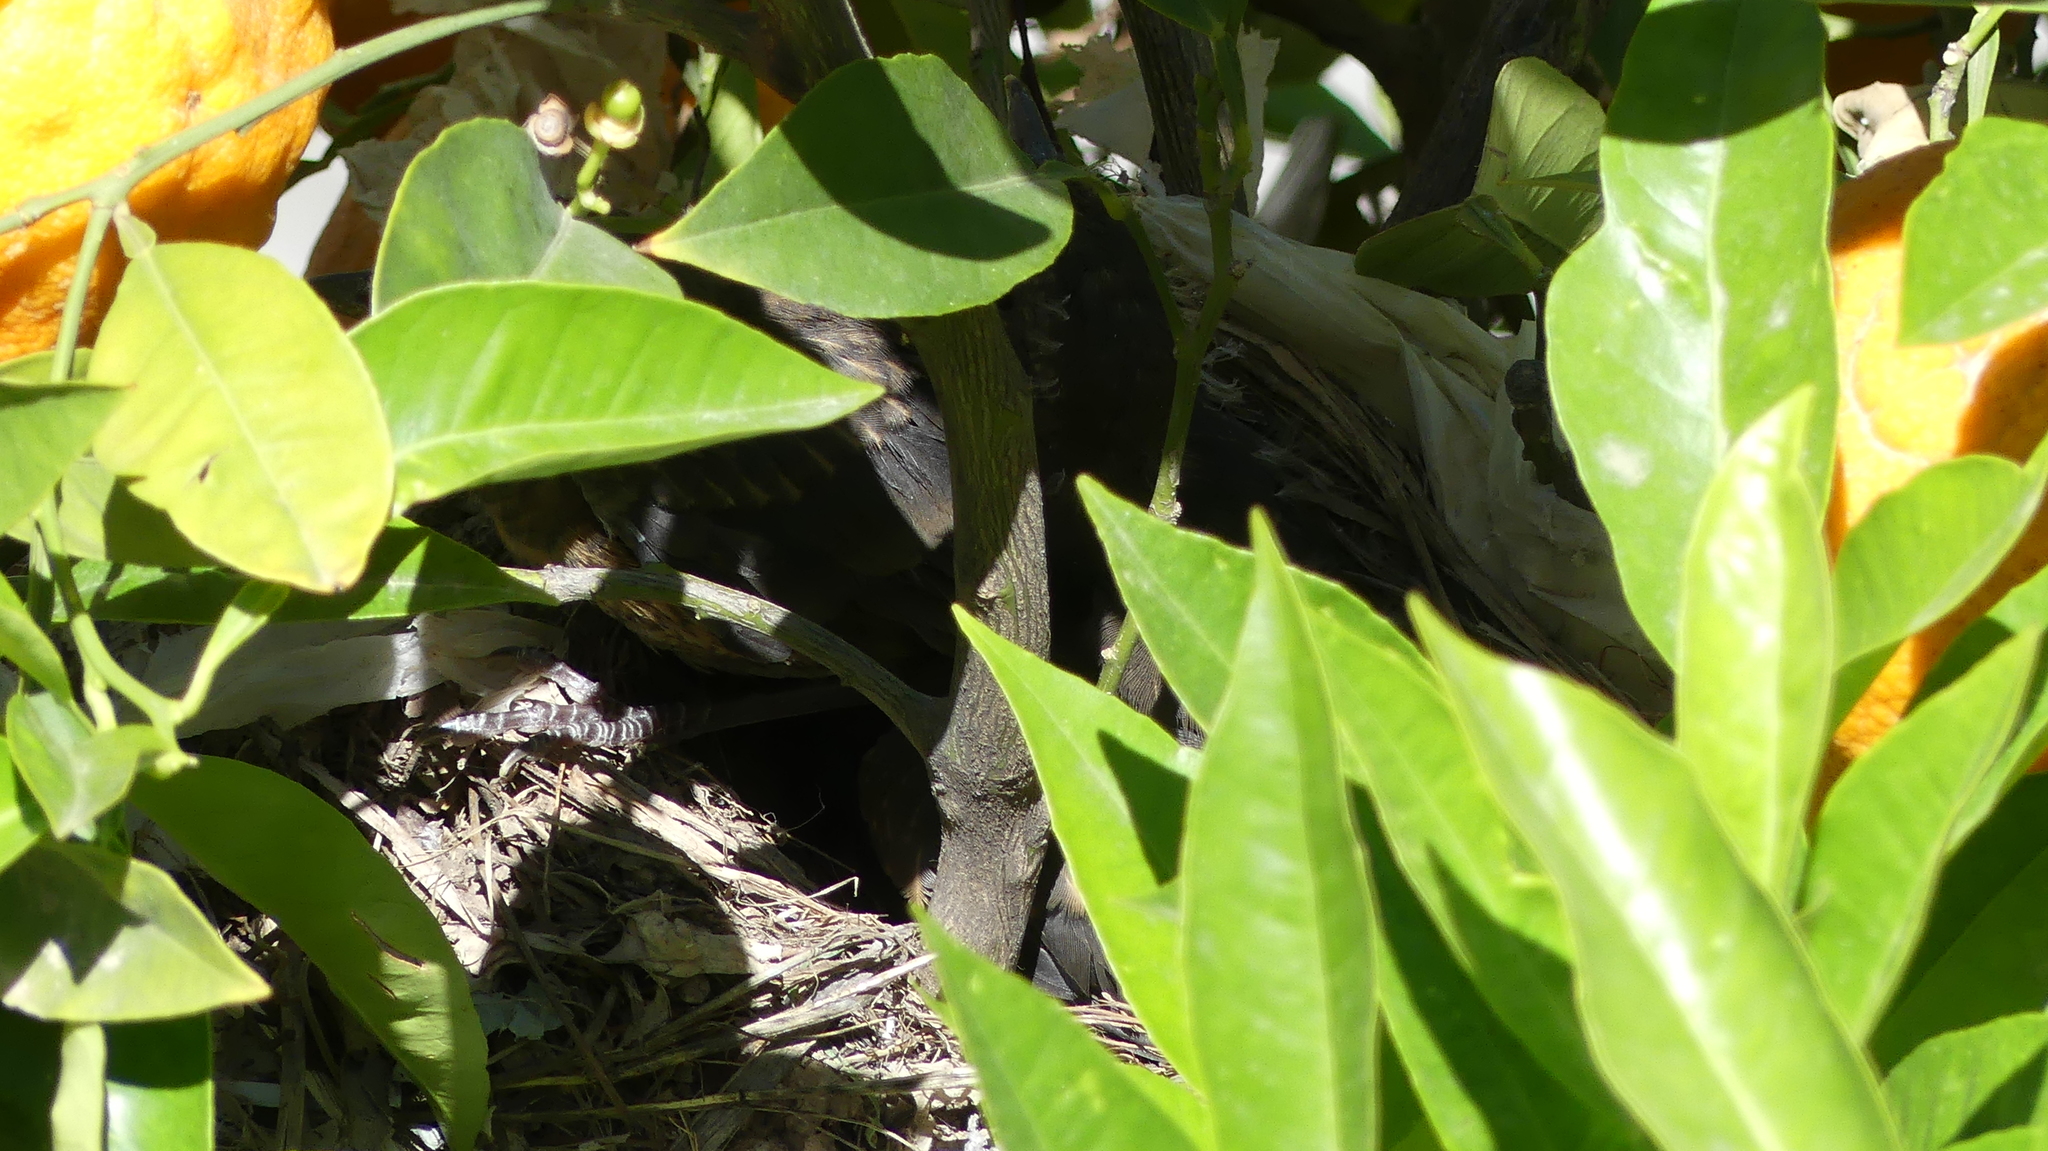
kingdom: Animalia
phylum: Chordata
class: Aves
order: Passeriformes
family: Turdidae
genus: Turdus
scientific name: Turdus merula
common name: Common blackbird
